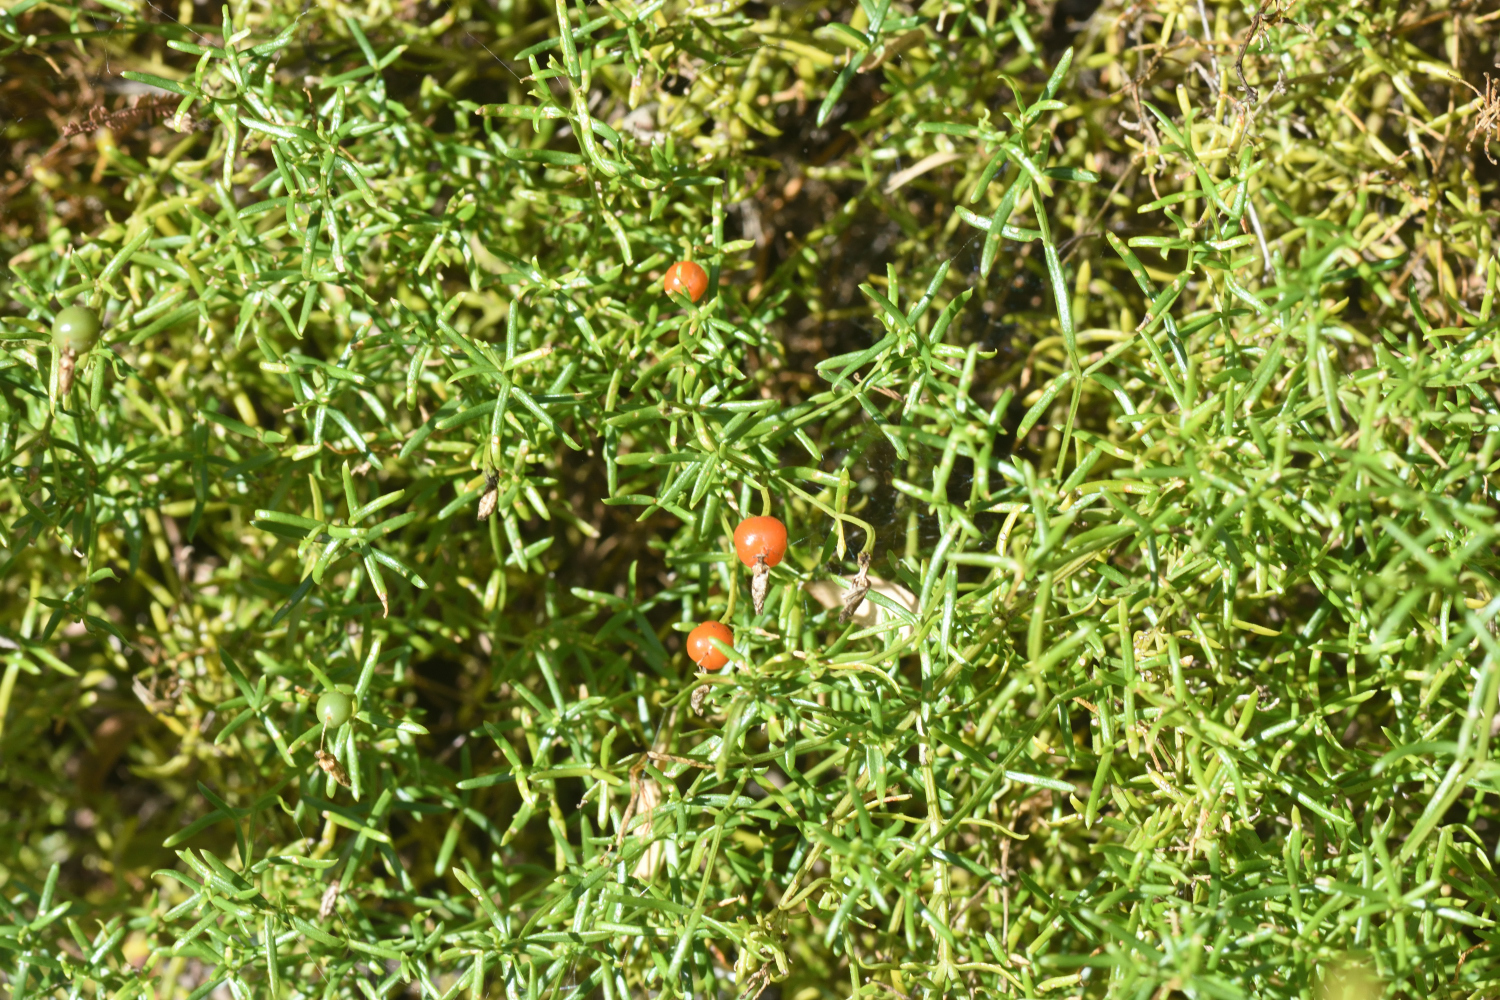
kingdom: Plantae
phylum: Tracheophyta
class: Magnoliopsida
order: Gentianales
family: Gentianaceae
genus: Chironia
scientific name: Chironia baccifera
